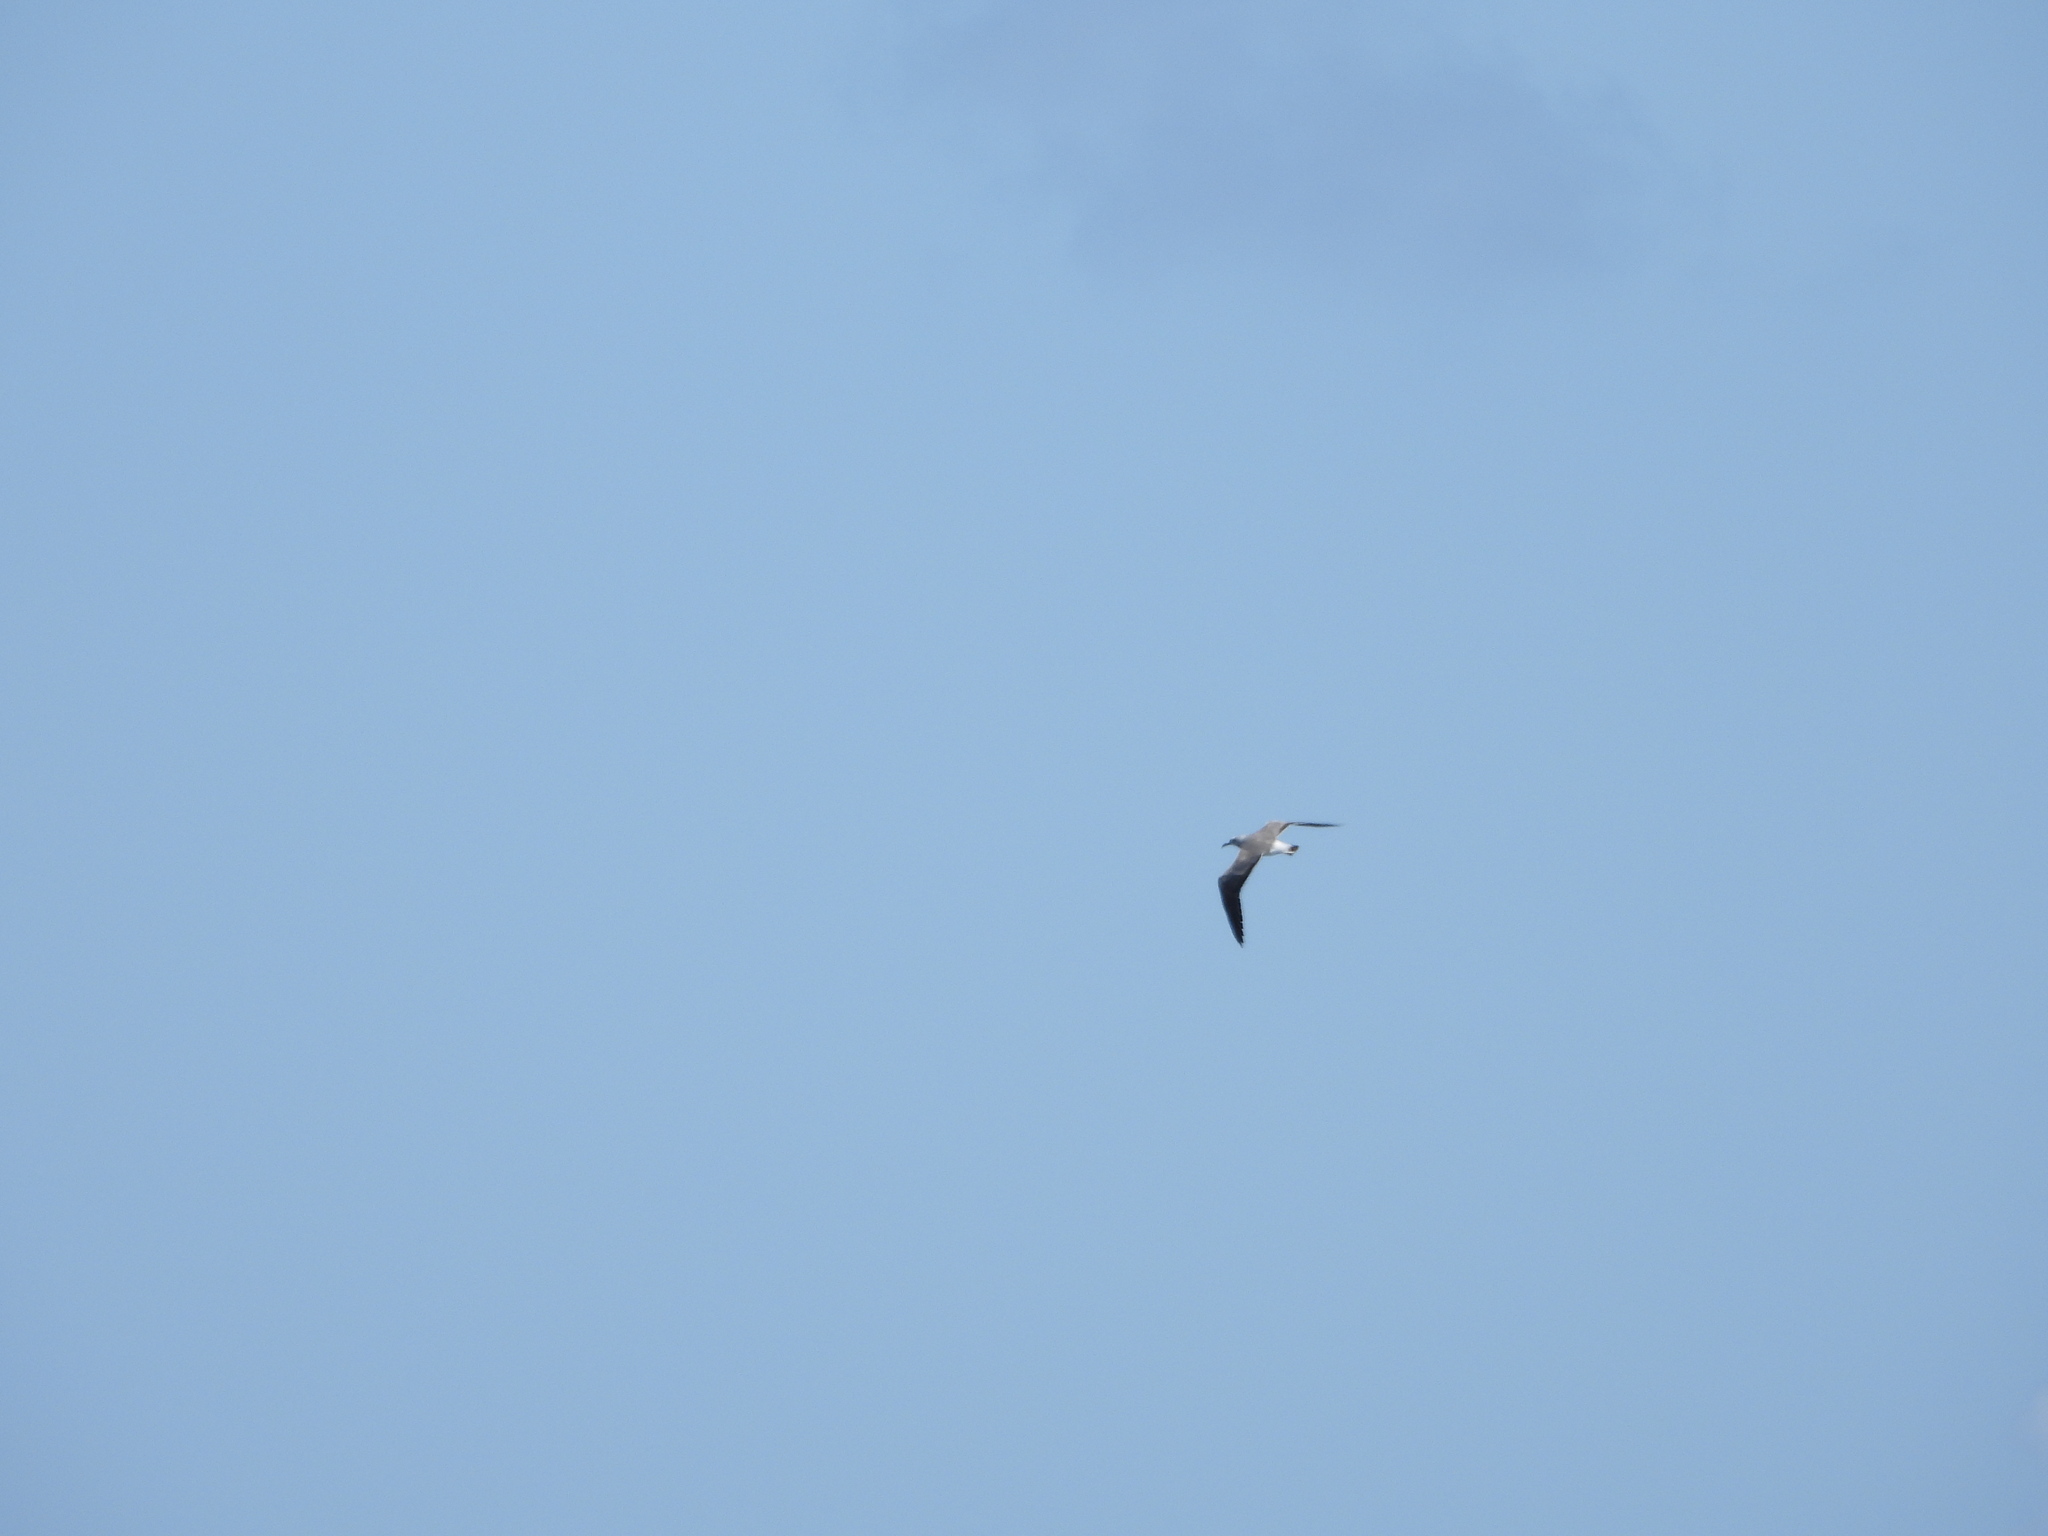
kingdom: Animalia
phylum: Chordata
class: Aves
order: Charadriiformes
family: Laridae
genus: Leucophaeus
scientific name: Leucophaeus atricilla
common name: Laughing gull
